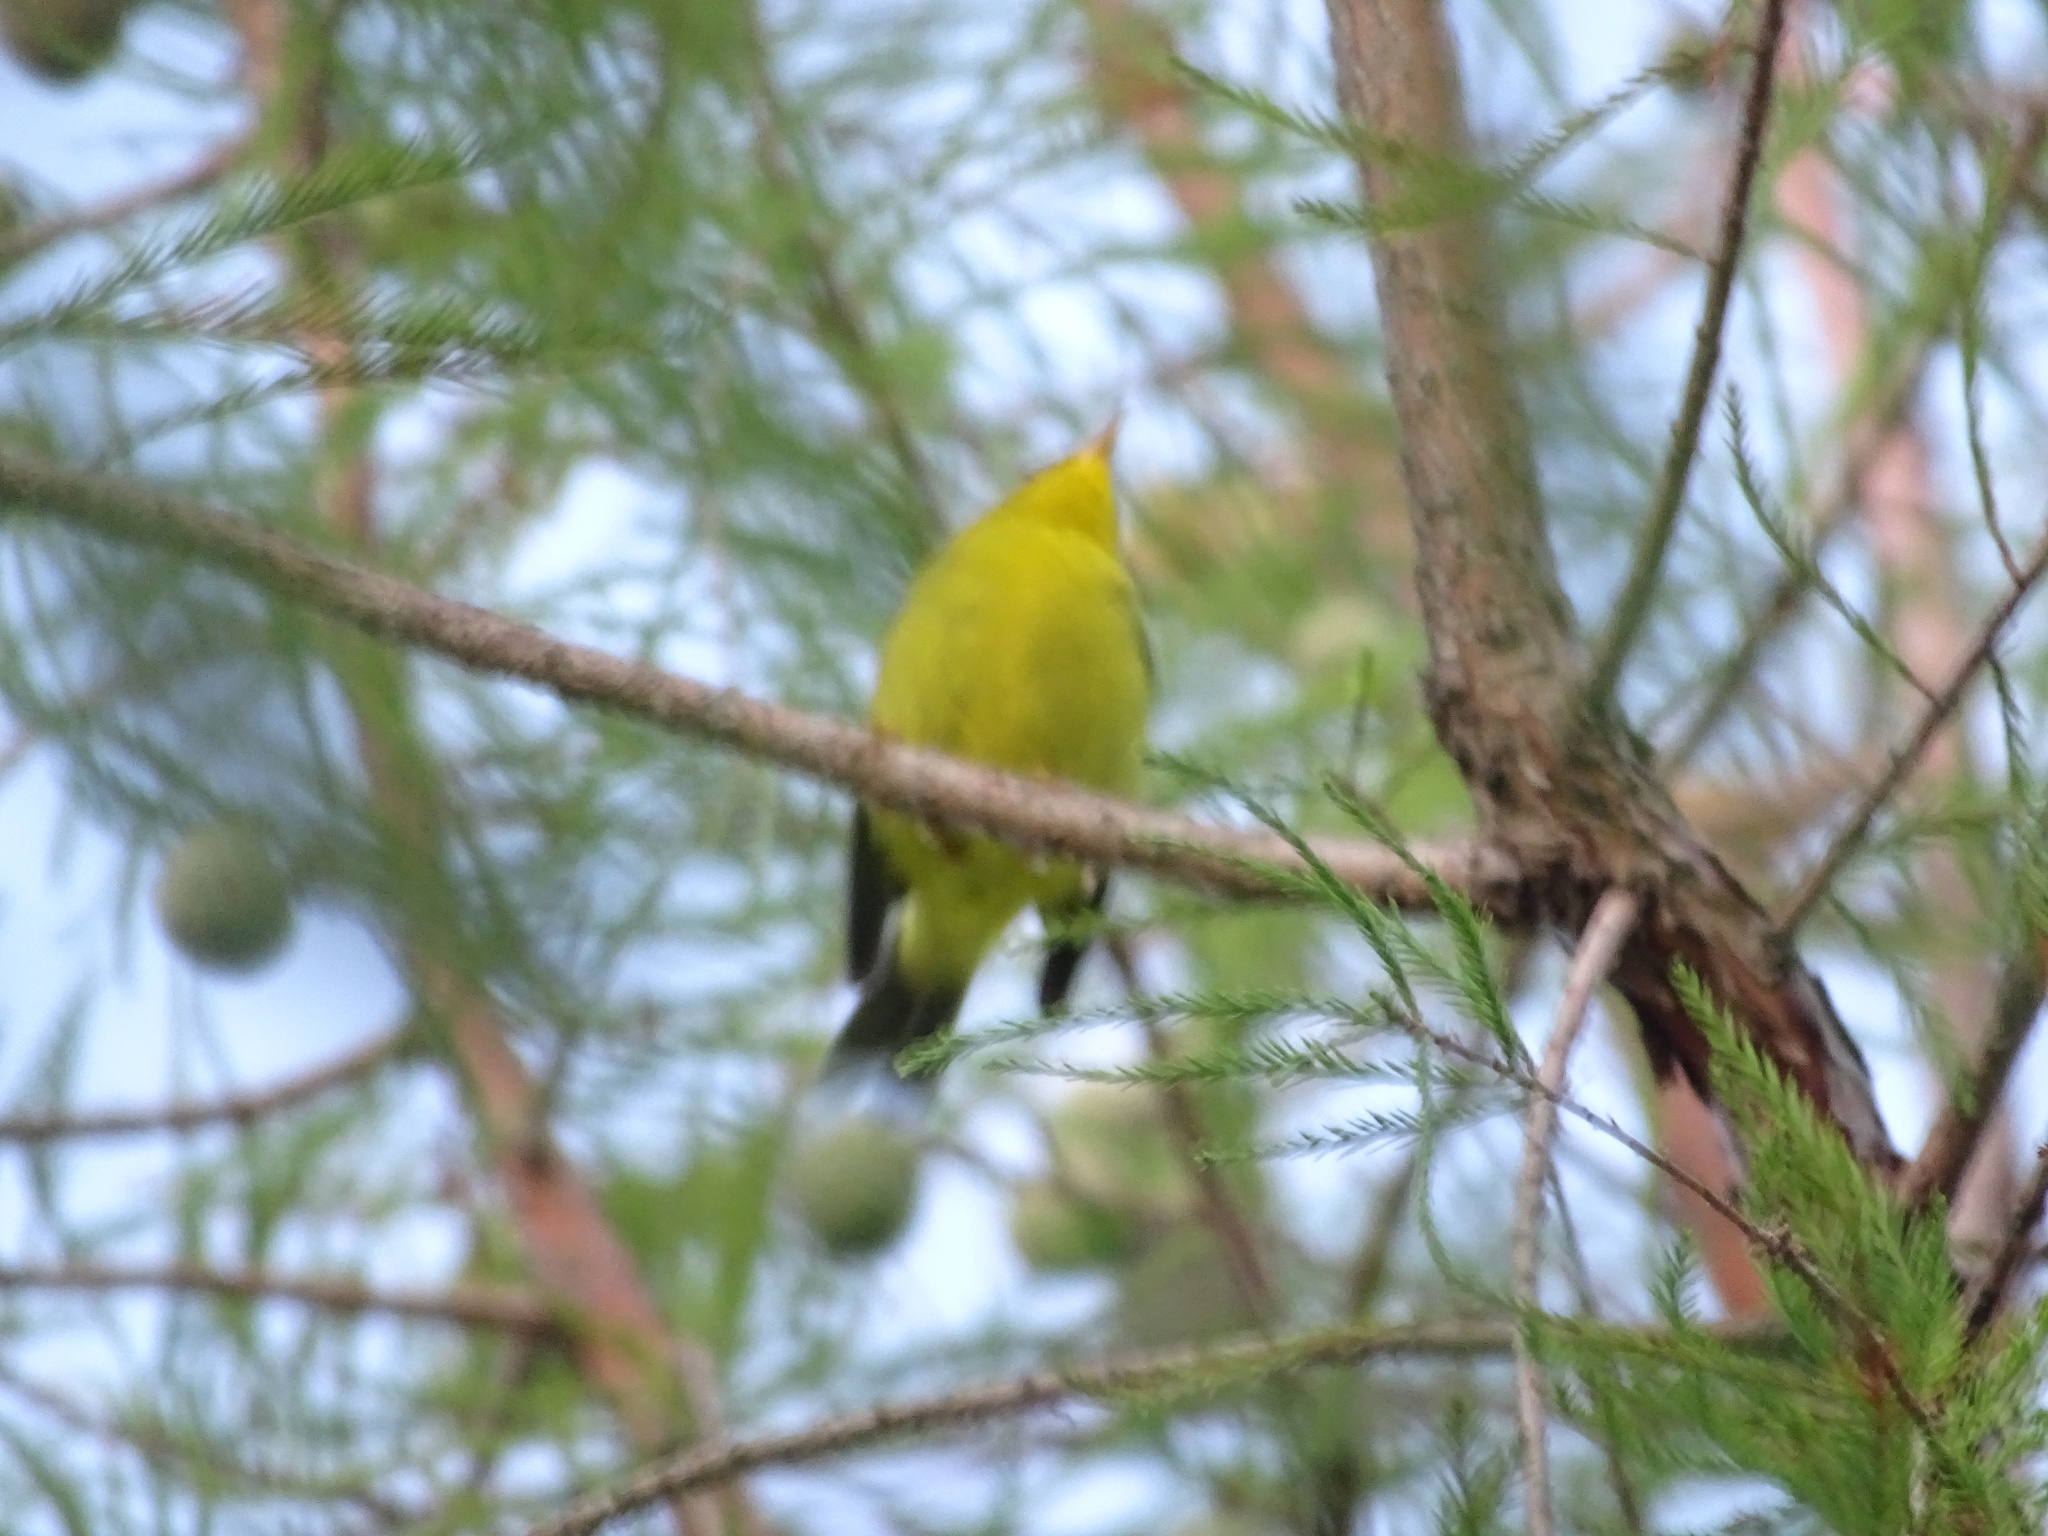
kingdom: Animalia
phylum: Chordata
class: Aves
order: Passeriformes
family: Parulidae
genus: Cardellina
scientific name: Cardellina pusilla
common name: Wilson's warbler
